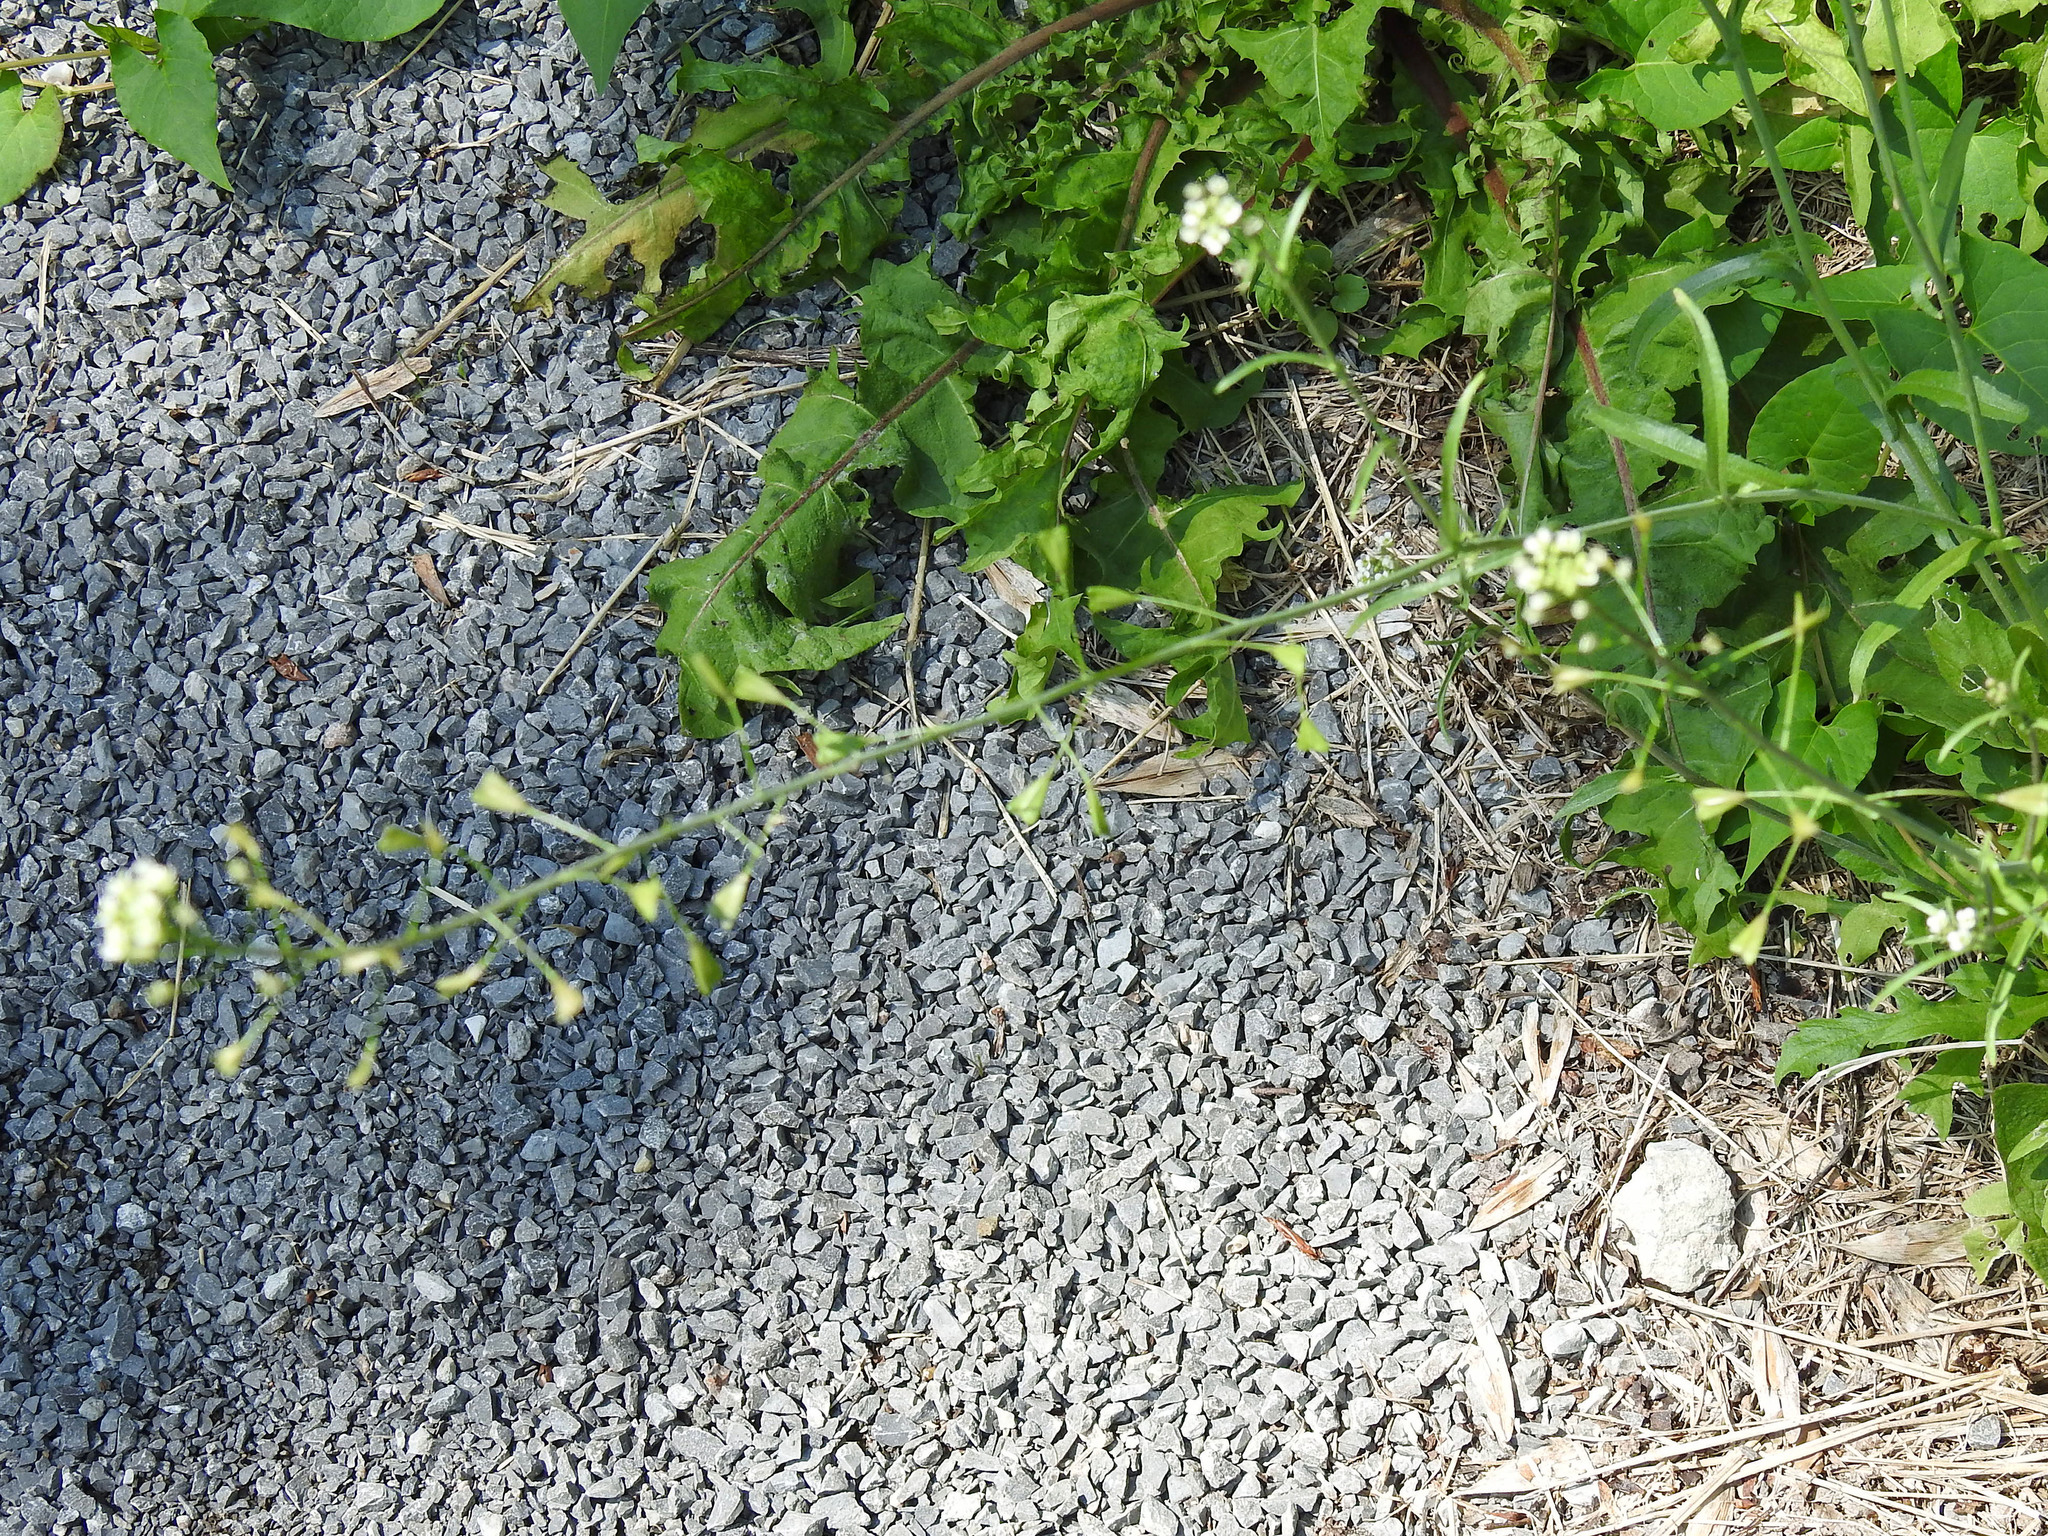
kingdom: Plantae
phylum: Tracheophyta
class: Magnoliopsida
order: Brassicales
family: Brassicaceae
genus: Capsella
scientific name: Capsella bursa-pastoris
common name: Shepherd's purse
